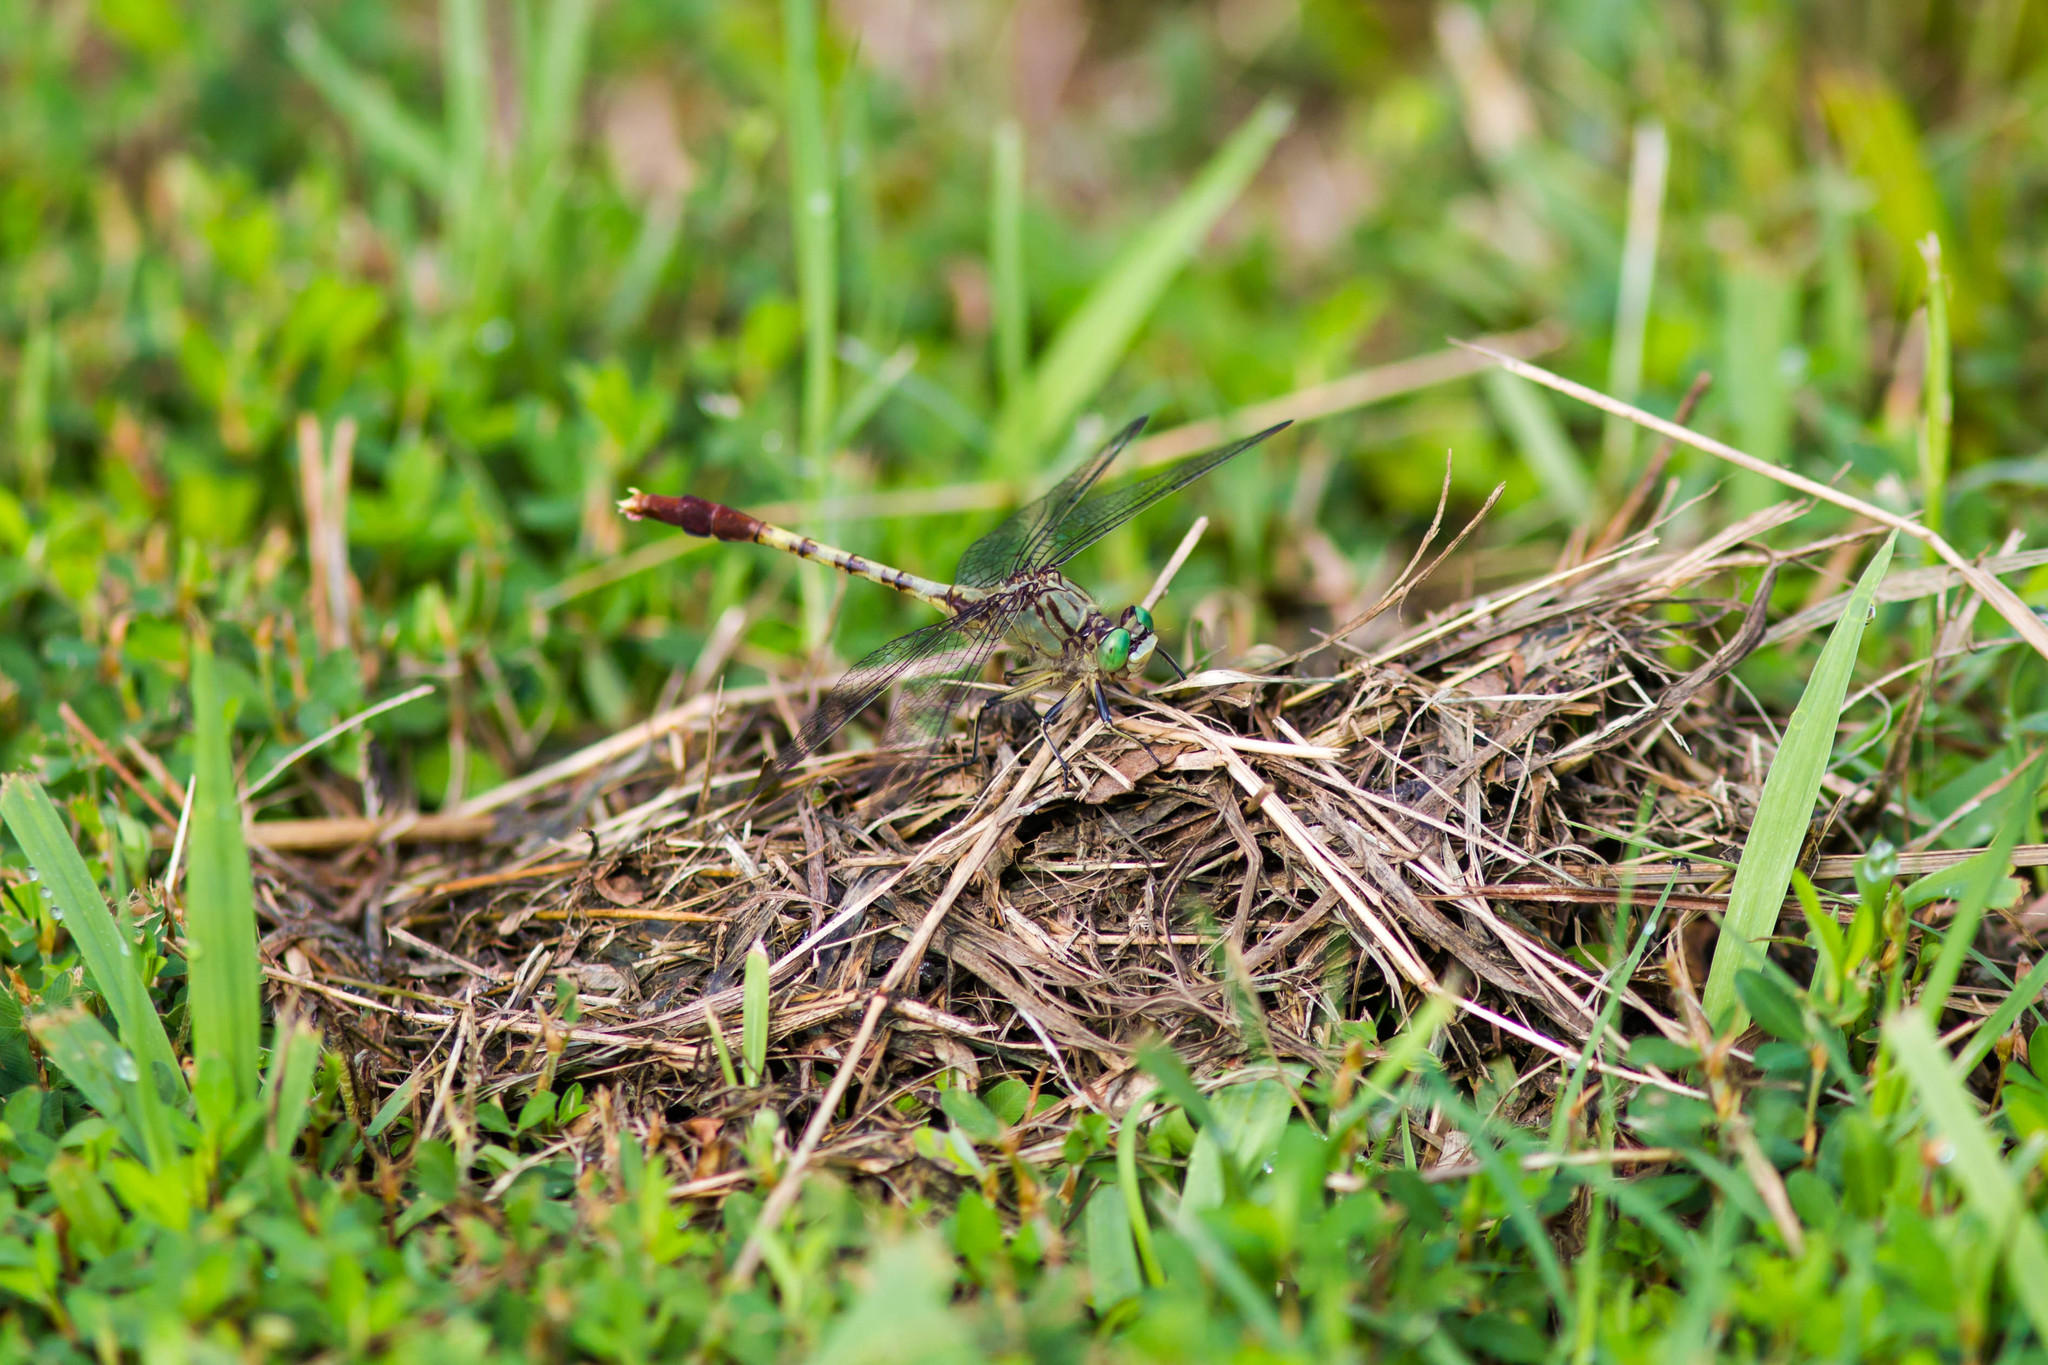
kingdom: Animalia
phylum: Arthropoda
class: Insecta
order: Odonata
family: Gomphidae
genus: Arigomphus
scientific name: Arigomphus submedianus
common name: Jade clubtail
